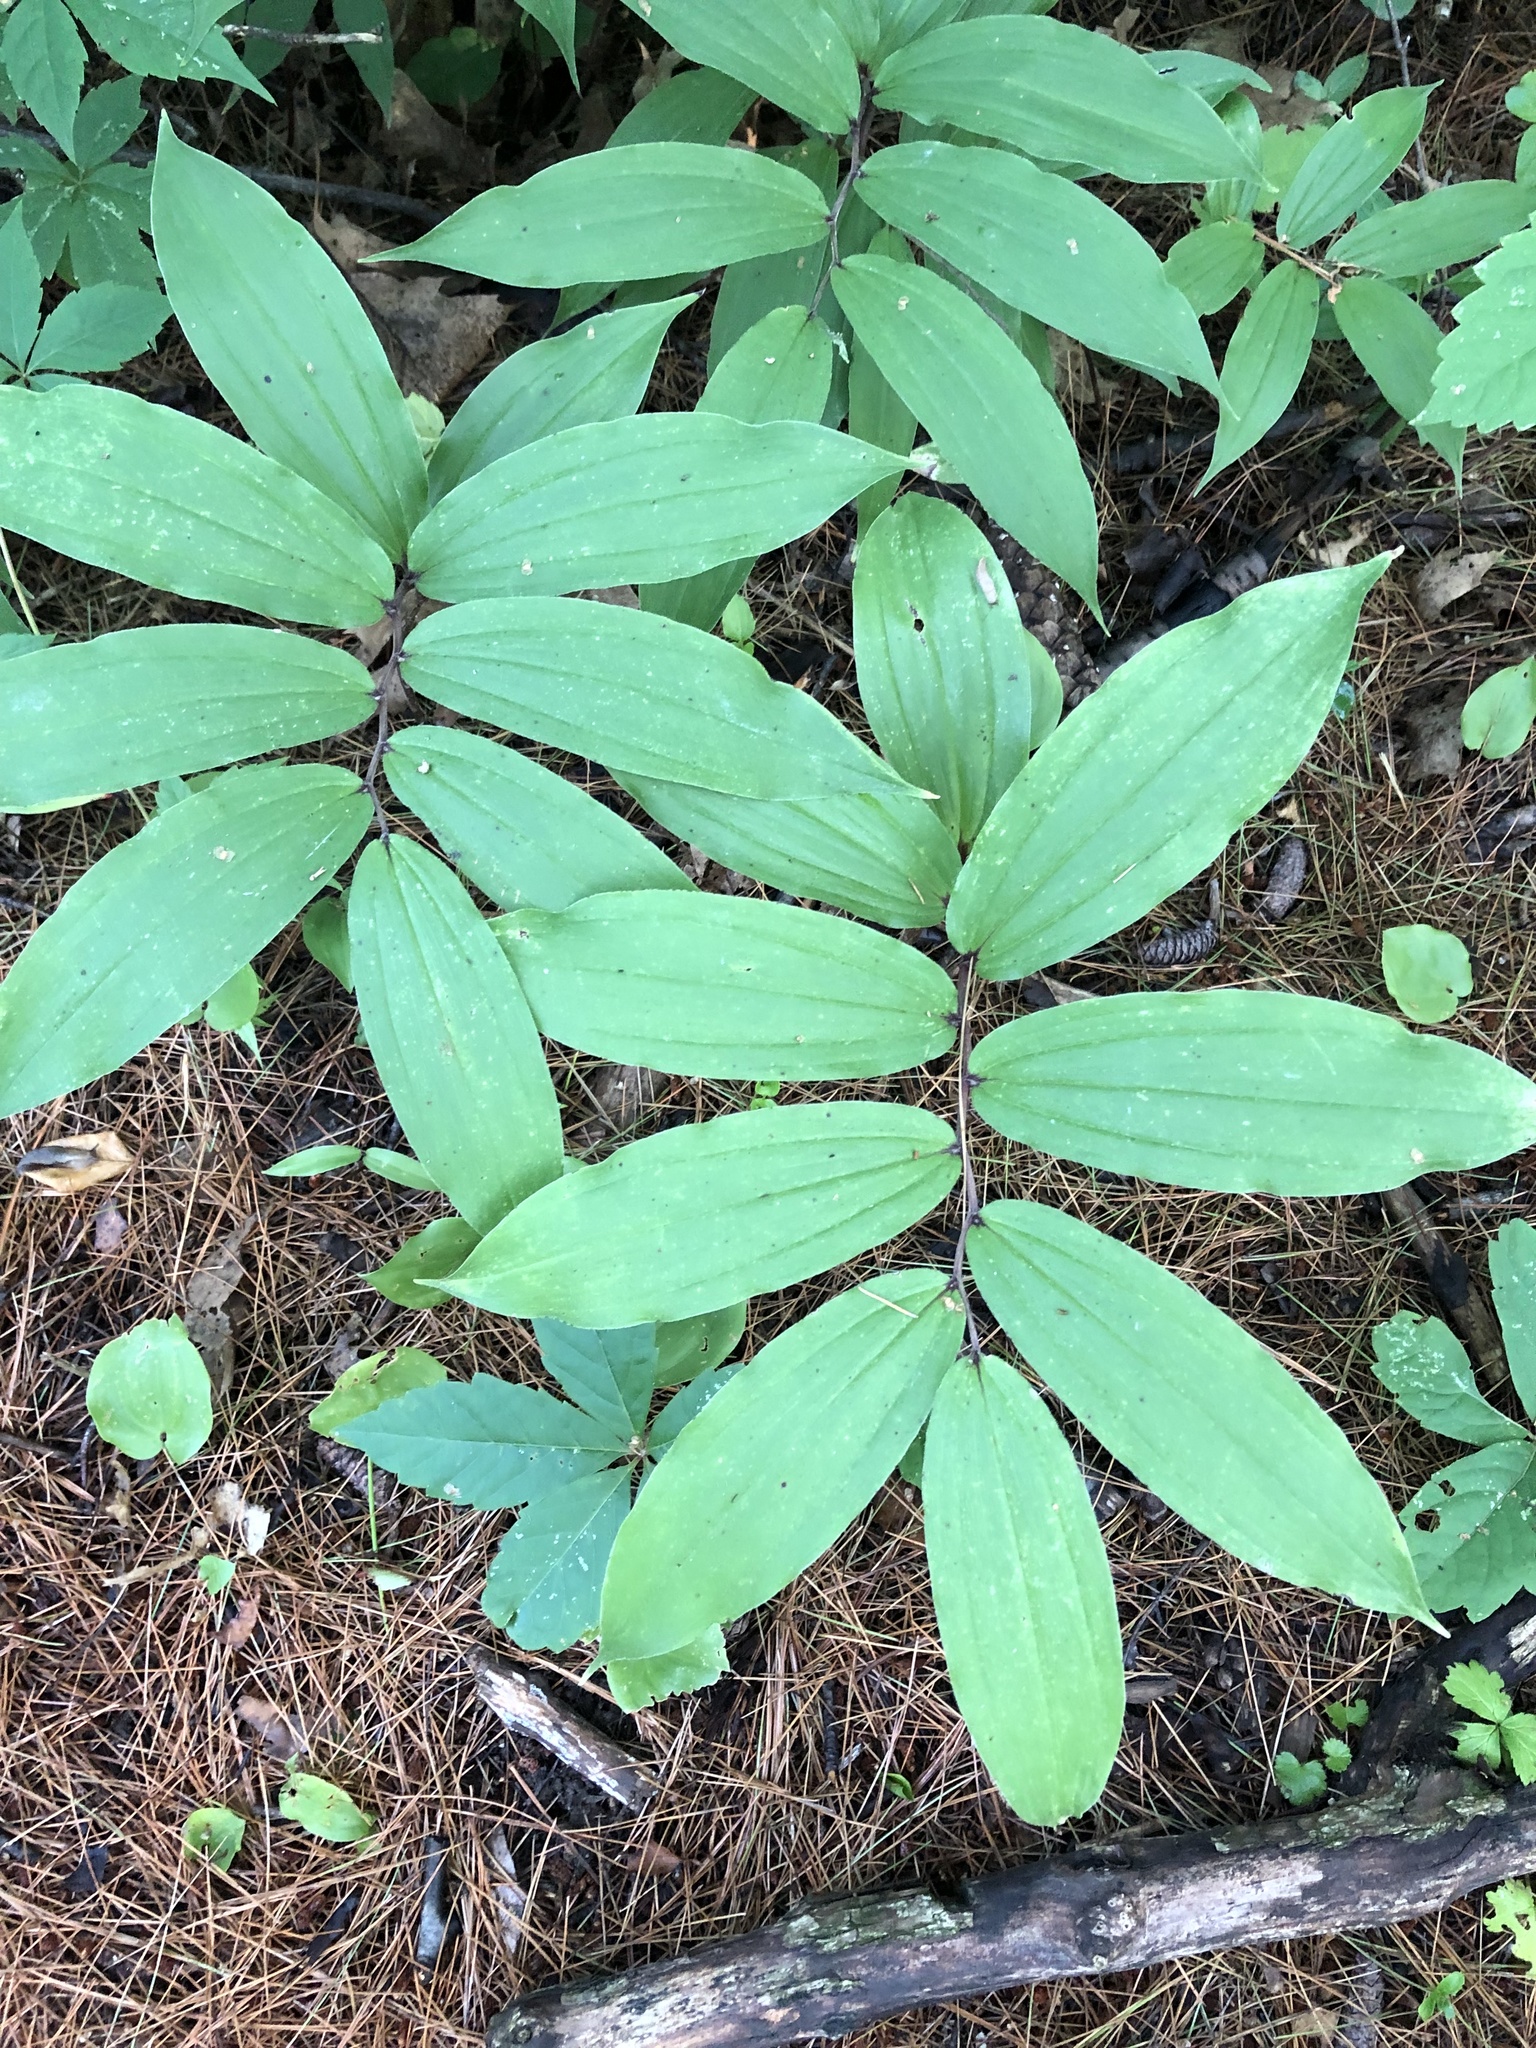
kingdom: Plantae
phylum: Tracheophyta
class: Liliopsida
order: Asparagales
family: Asparagaceae
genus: Maianthemum
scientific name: Maianthemum racemosum
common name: False spikenard
